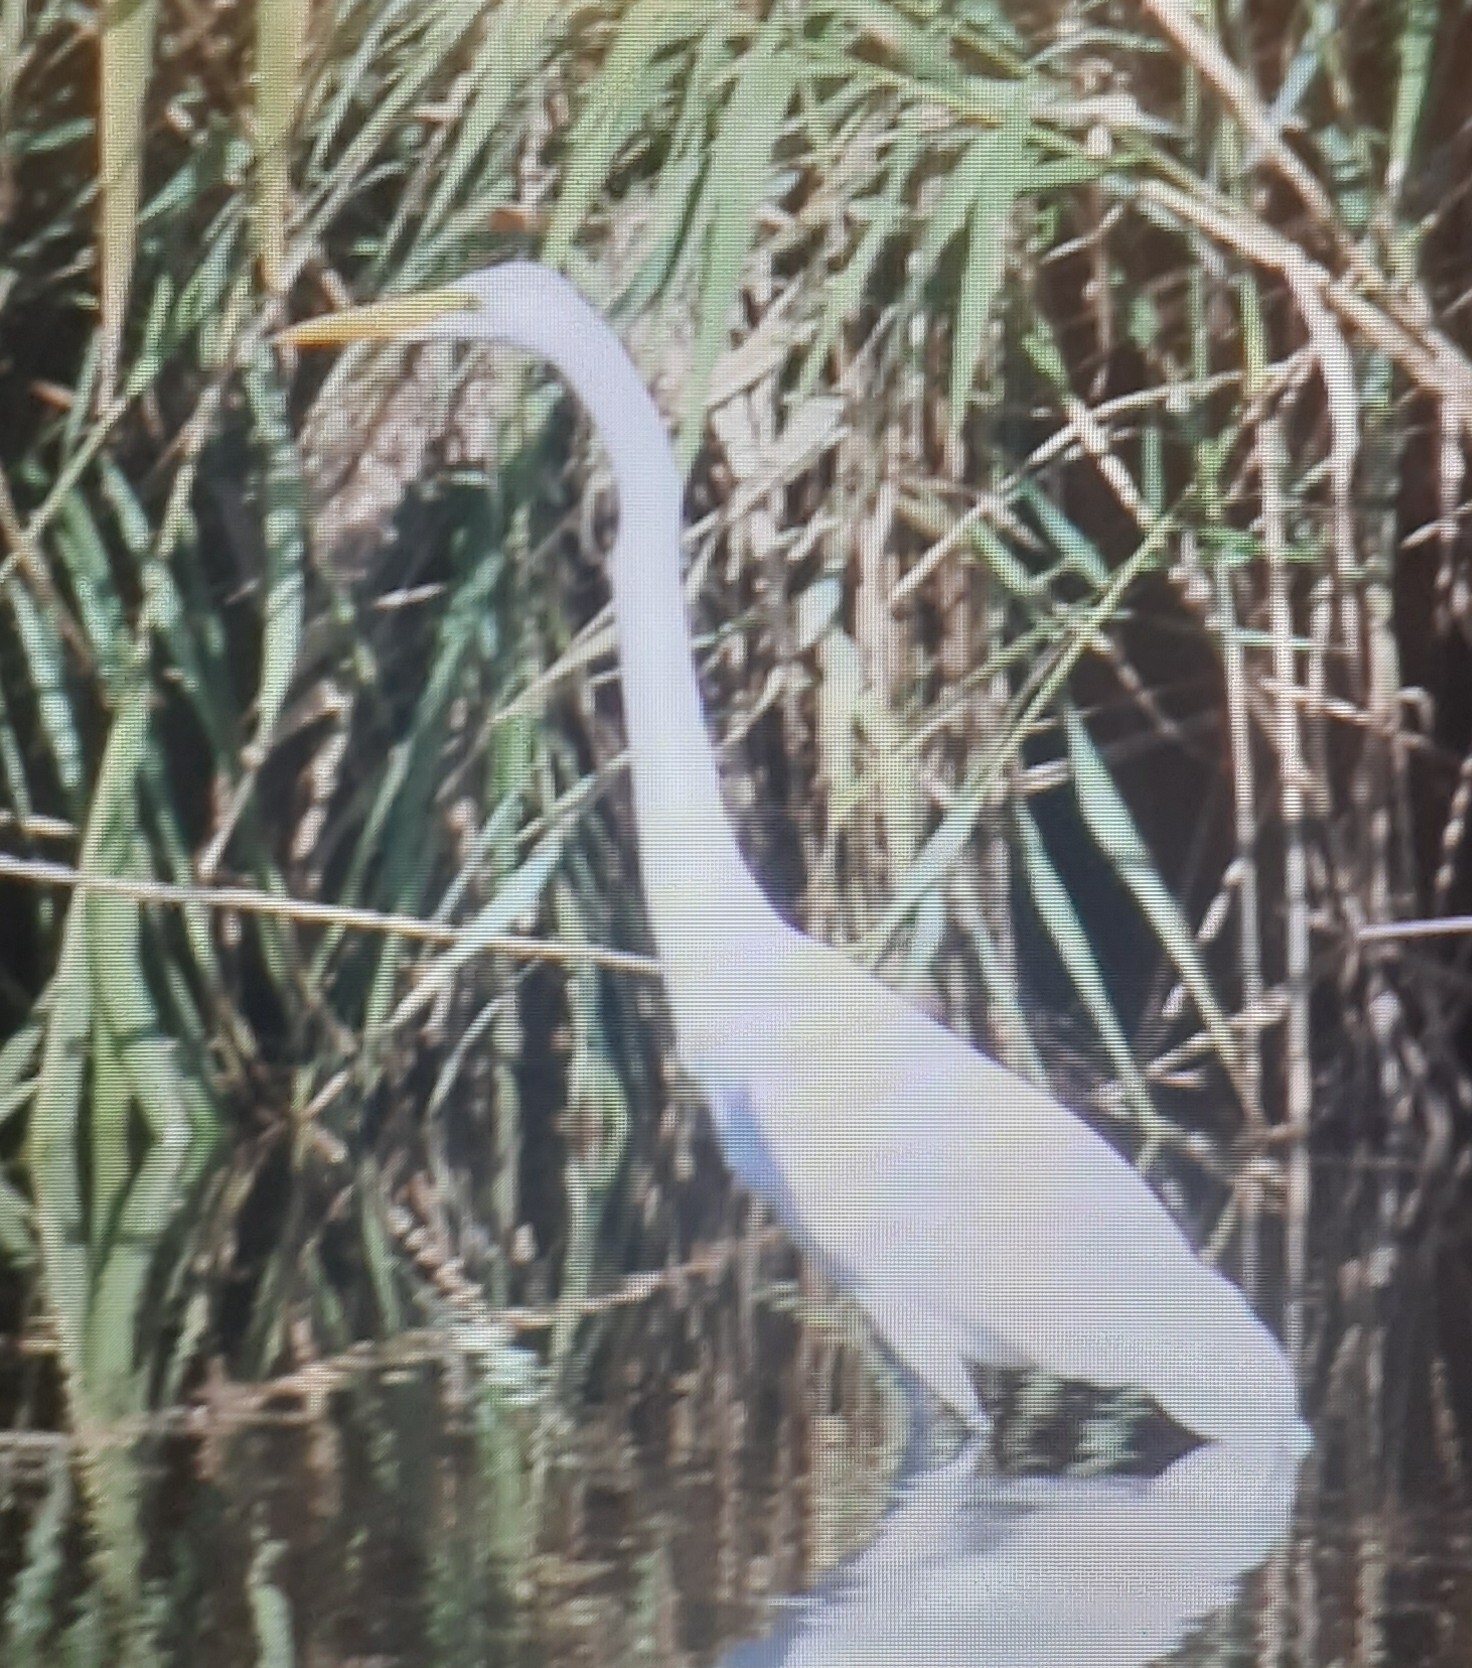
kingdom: Animalia
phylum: Chordata
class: Aves
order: Pelecaniformes
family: Ardeidae
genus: Ardea
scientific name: Ardea alba
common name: Great egret
